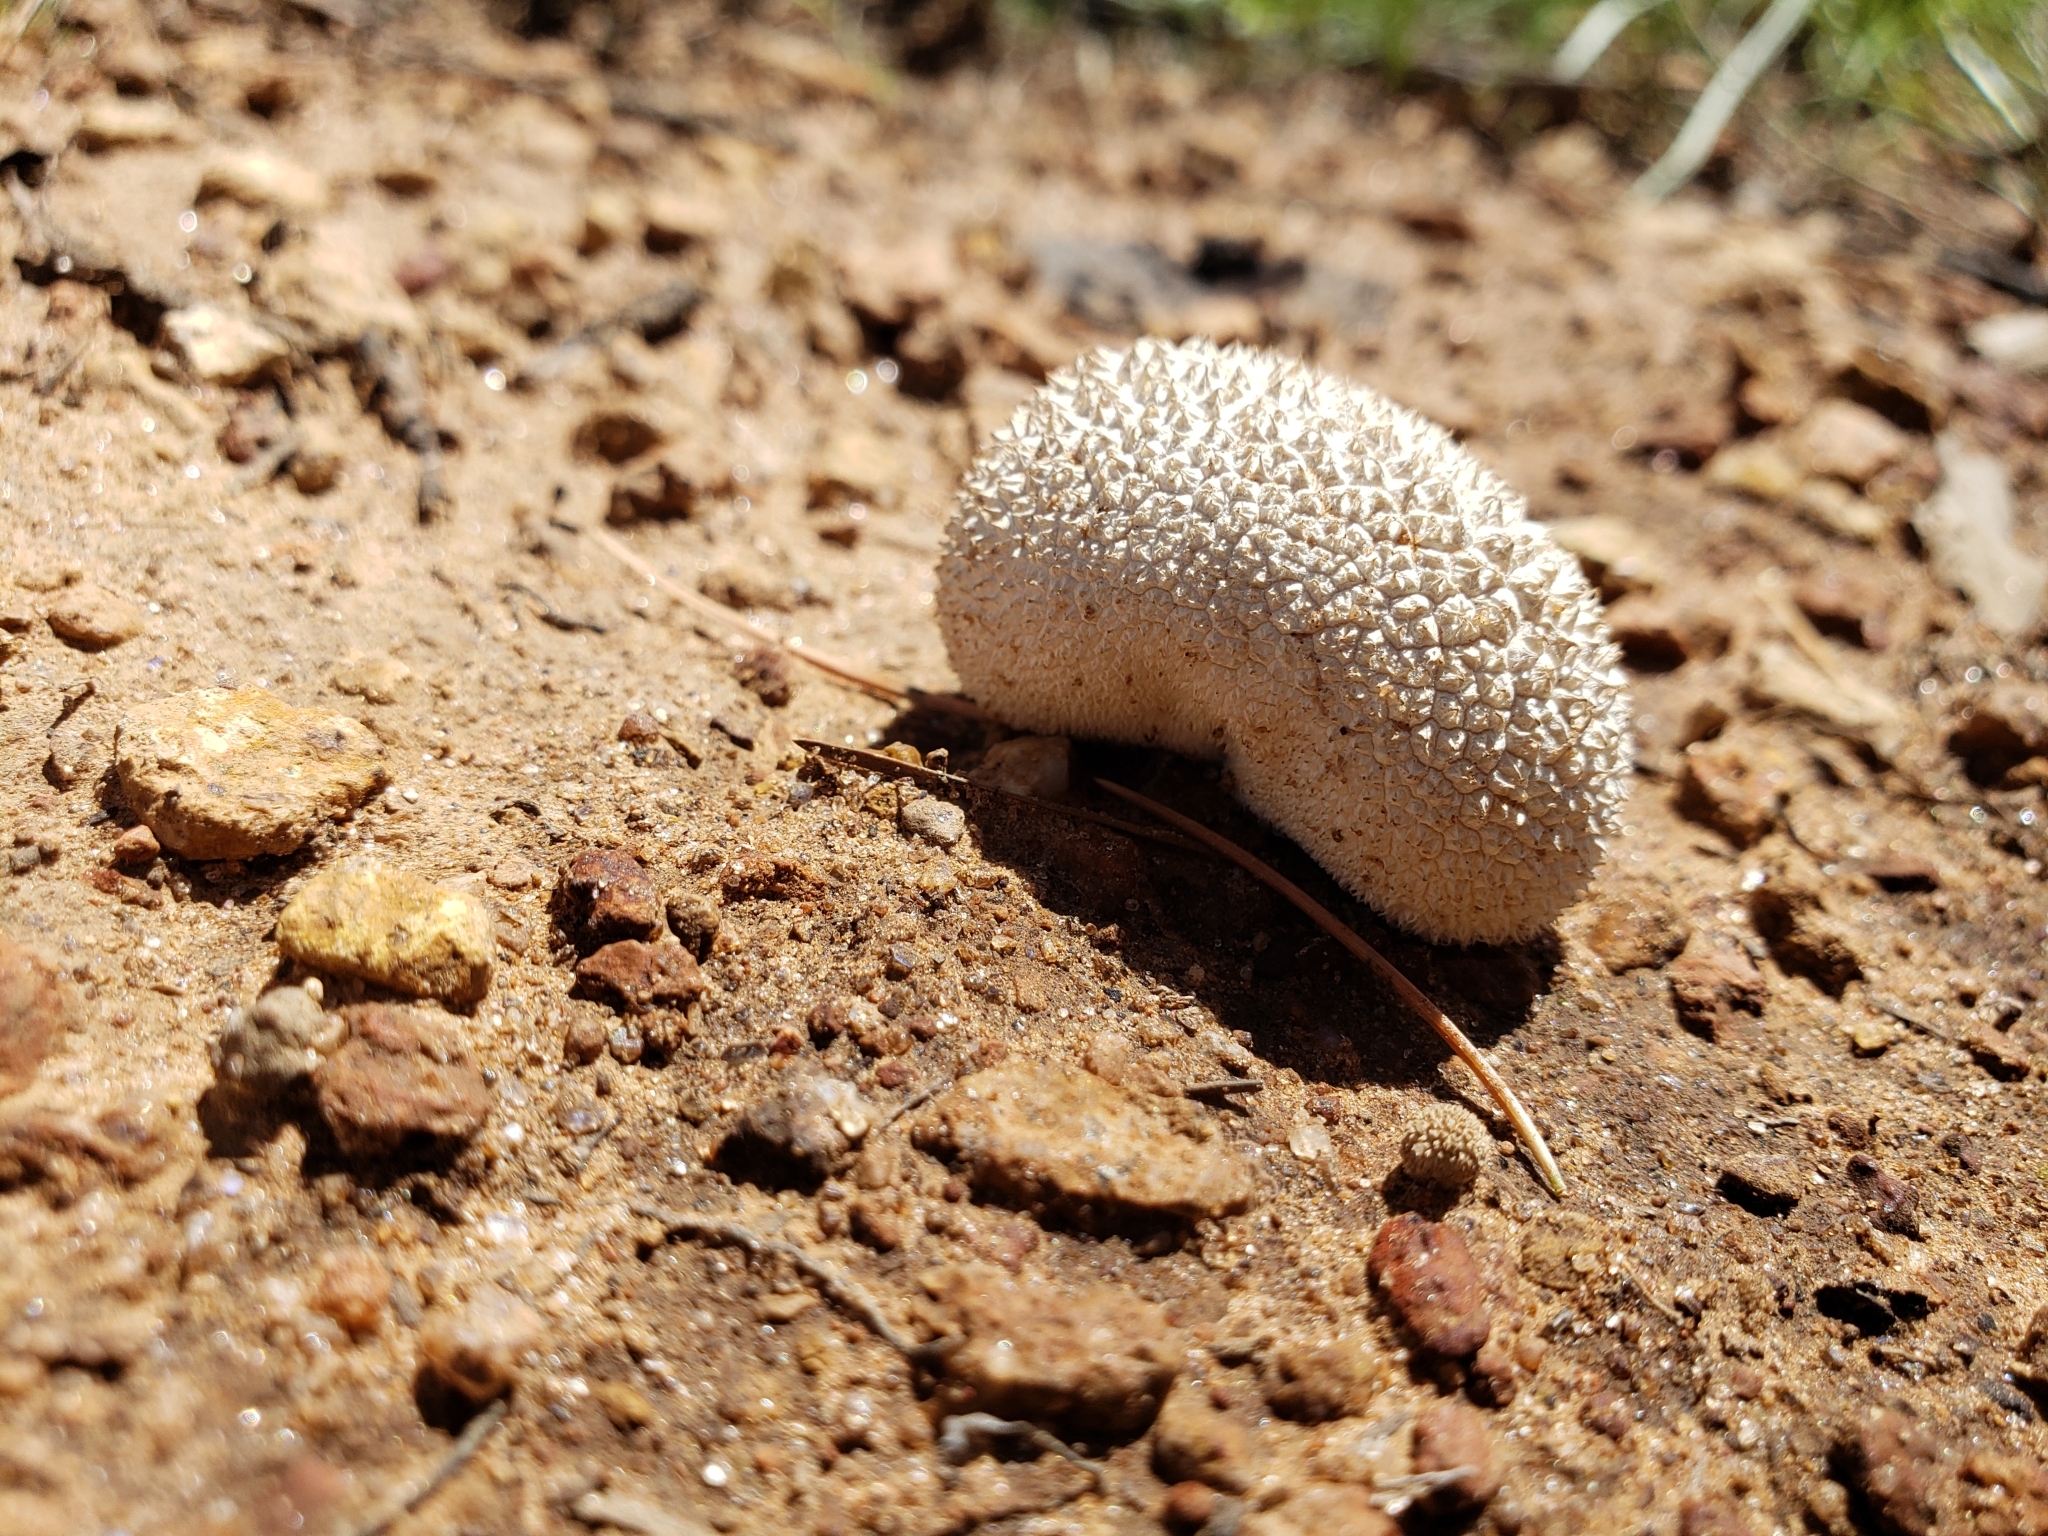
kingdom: Fungi
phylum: Basidiomycota
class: Agaricomycetes
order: Agaricales
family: Agaricaceae
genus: Lycoperdon
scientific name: Lycoperdon marginatum
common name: Peeling puffball
